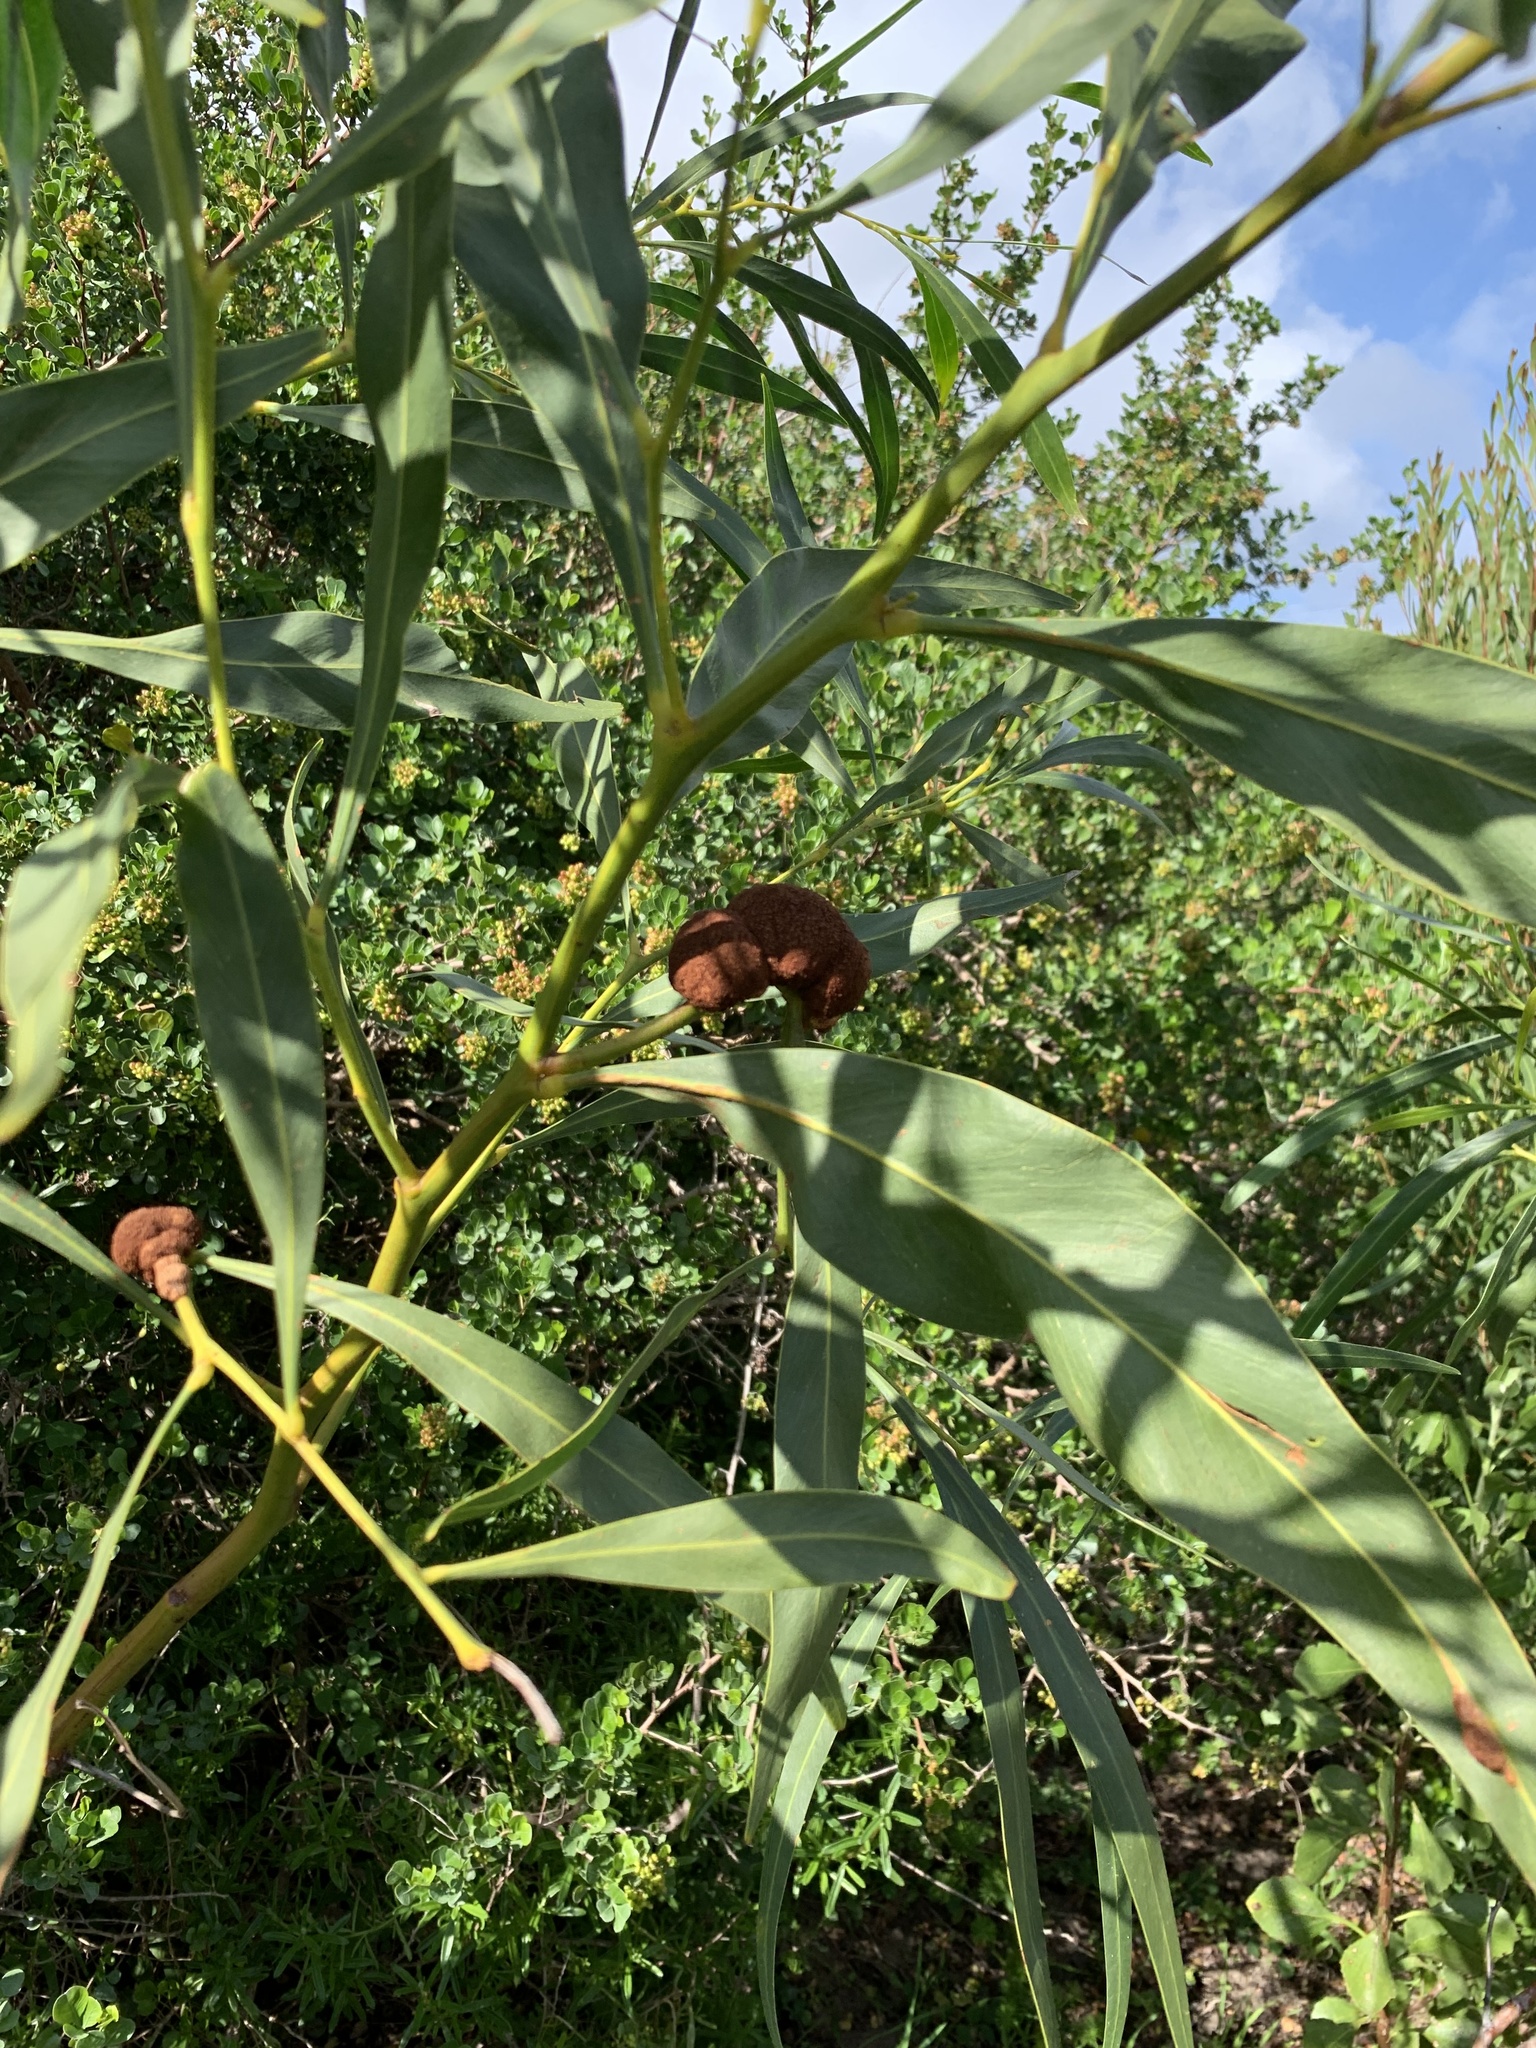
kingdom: Plantae
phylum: Tracheophyta
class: Magnoliopsida
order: Fabales
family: Fabaceae
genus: Acacia
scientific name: Acacia saligna
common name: Orange wattle
